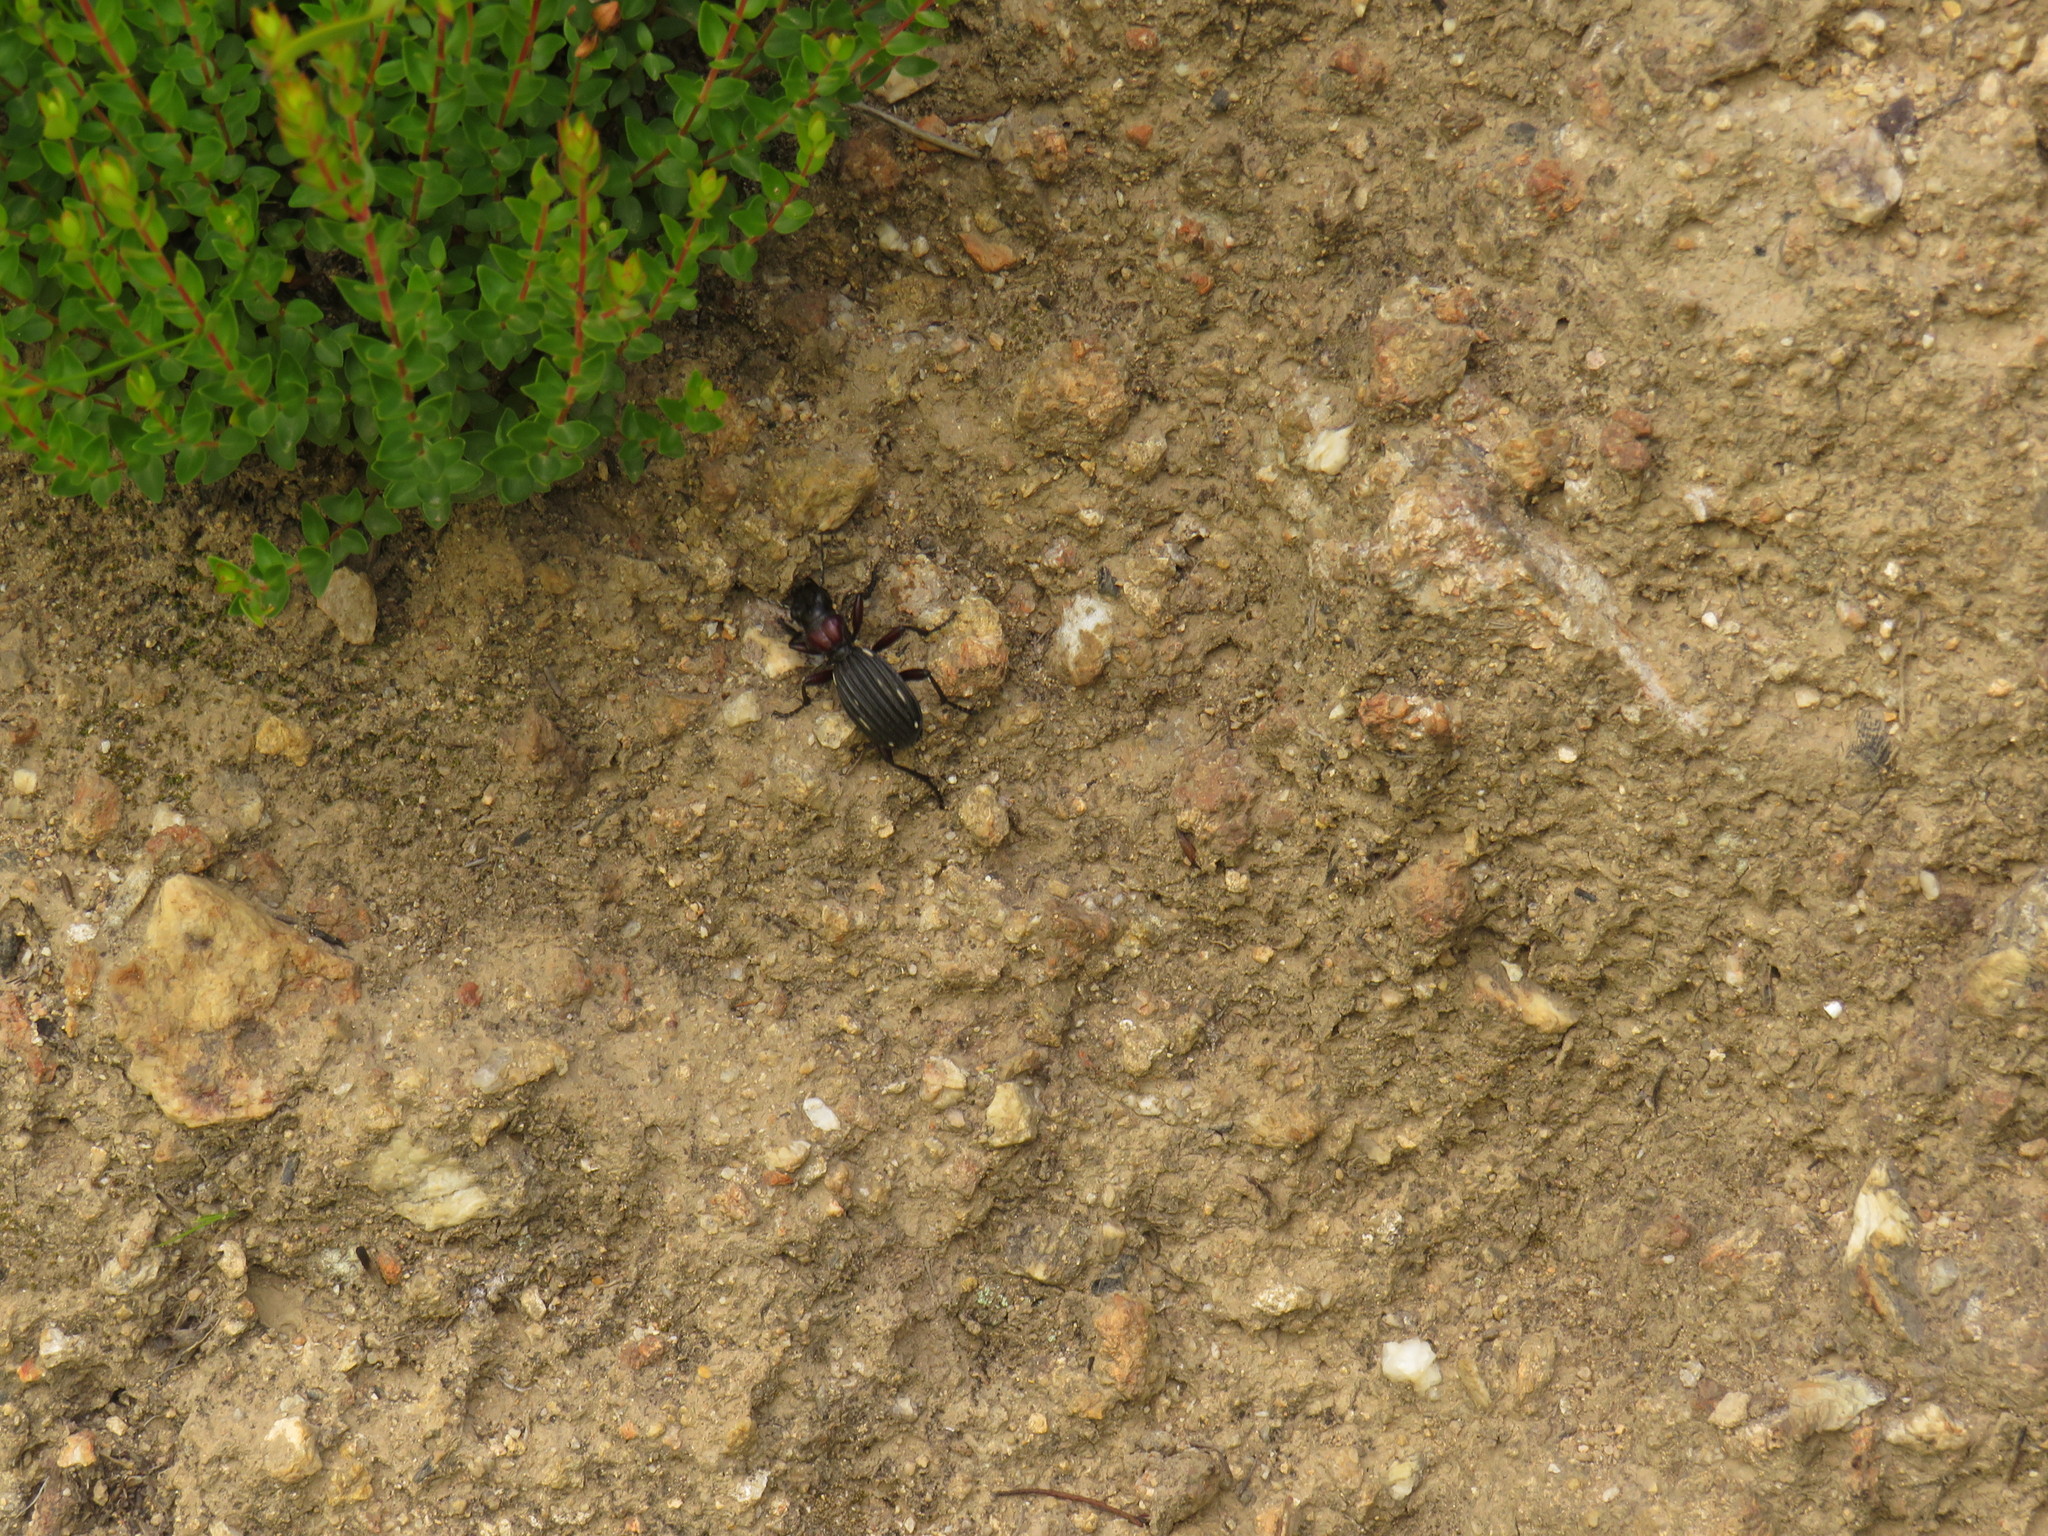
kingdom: Animalia
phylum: Arthropoda
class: Insecta
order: Coleoptera
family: Carabidae
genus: Anthia
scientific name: Anthia decemguttata
